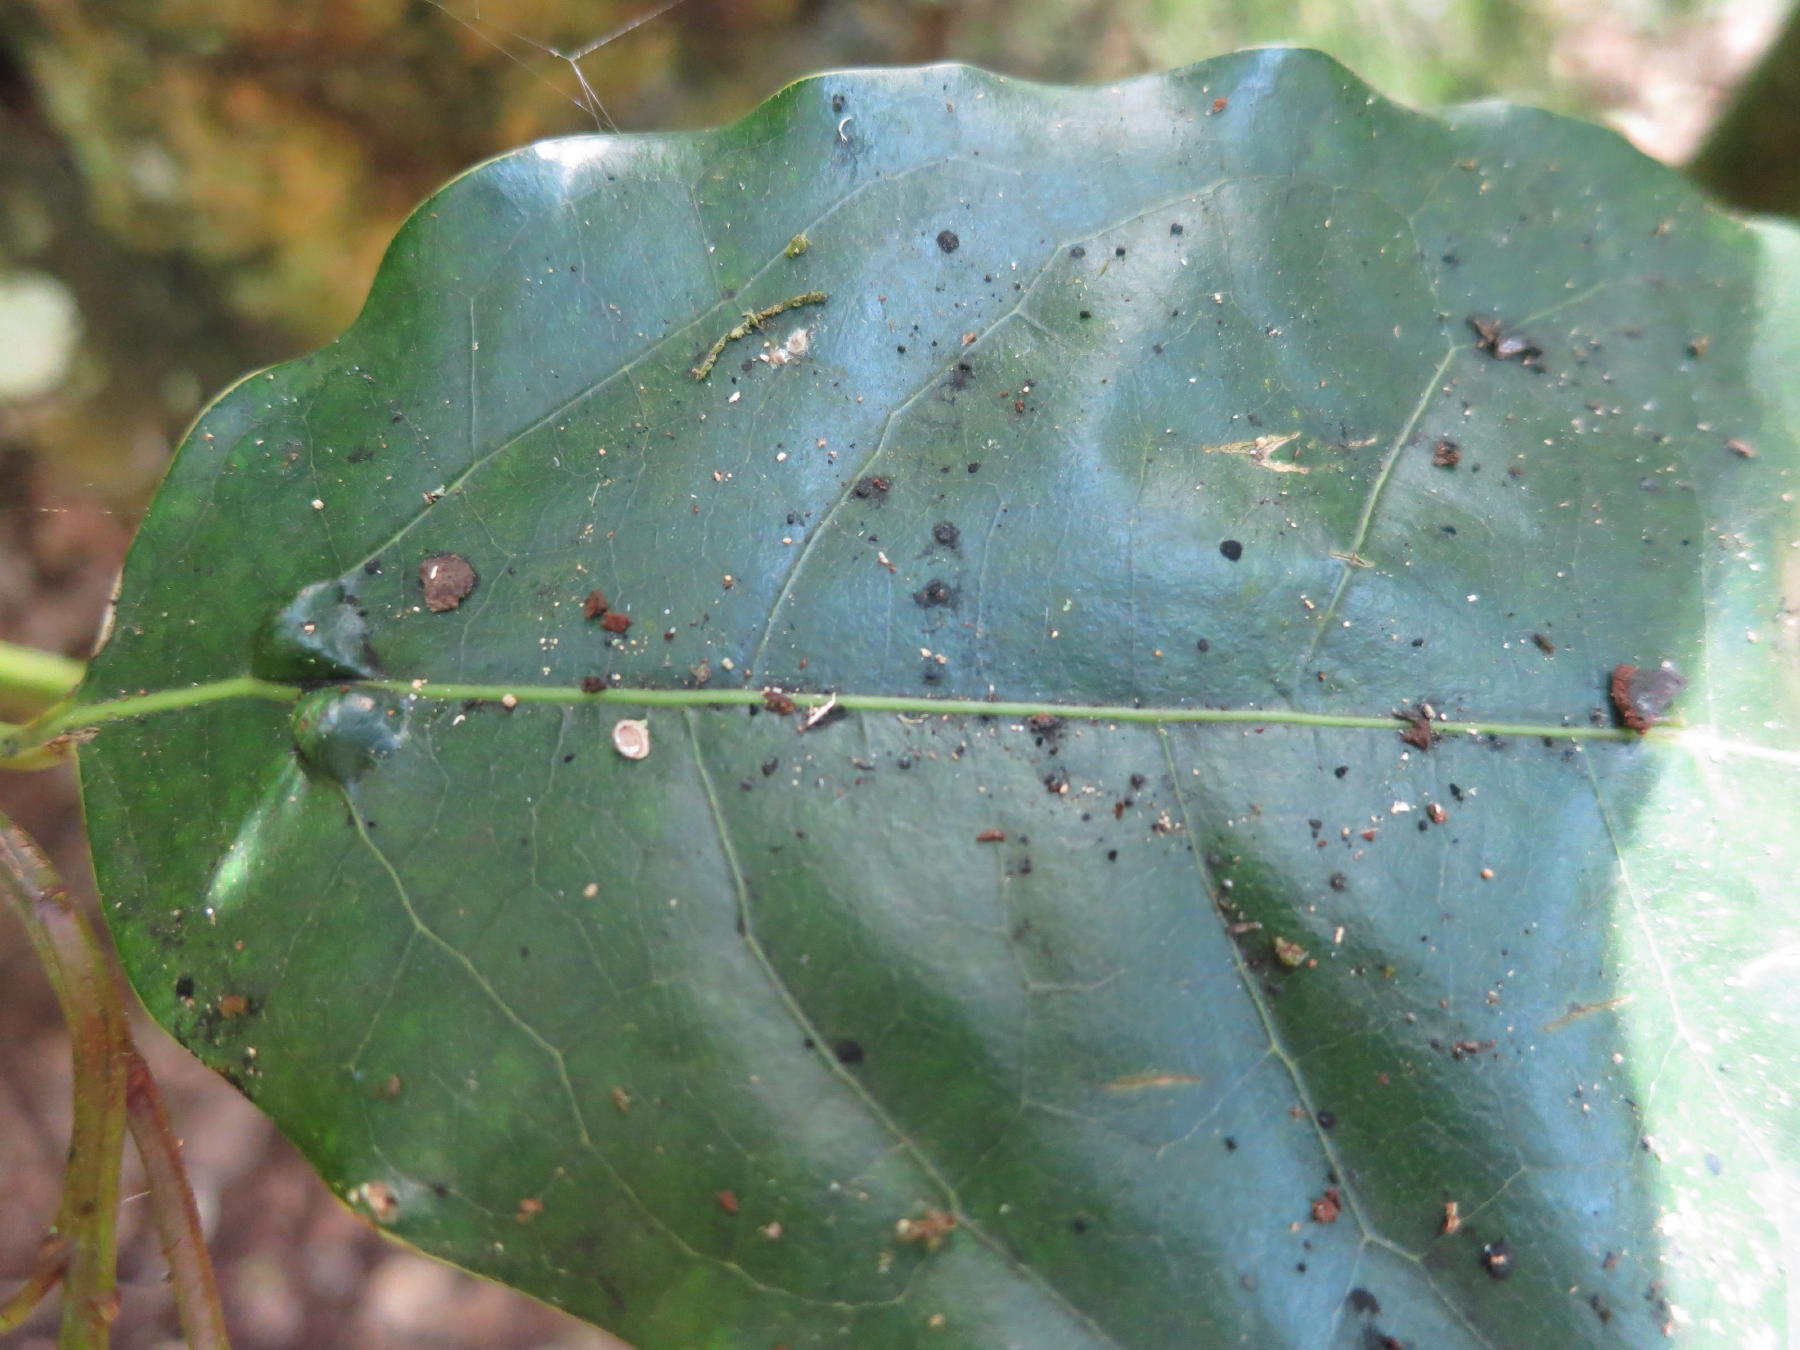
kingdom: Plantae
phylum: Tracheophyta
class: Magnoliopsida
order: Laurales
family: Lauraceae
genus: Ocotea
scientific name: Ocotea bullata
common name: Black stinkwood
